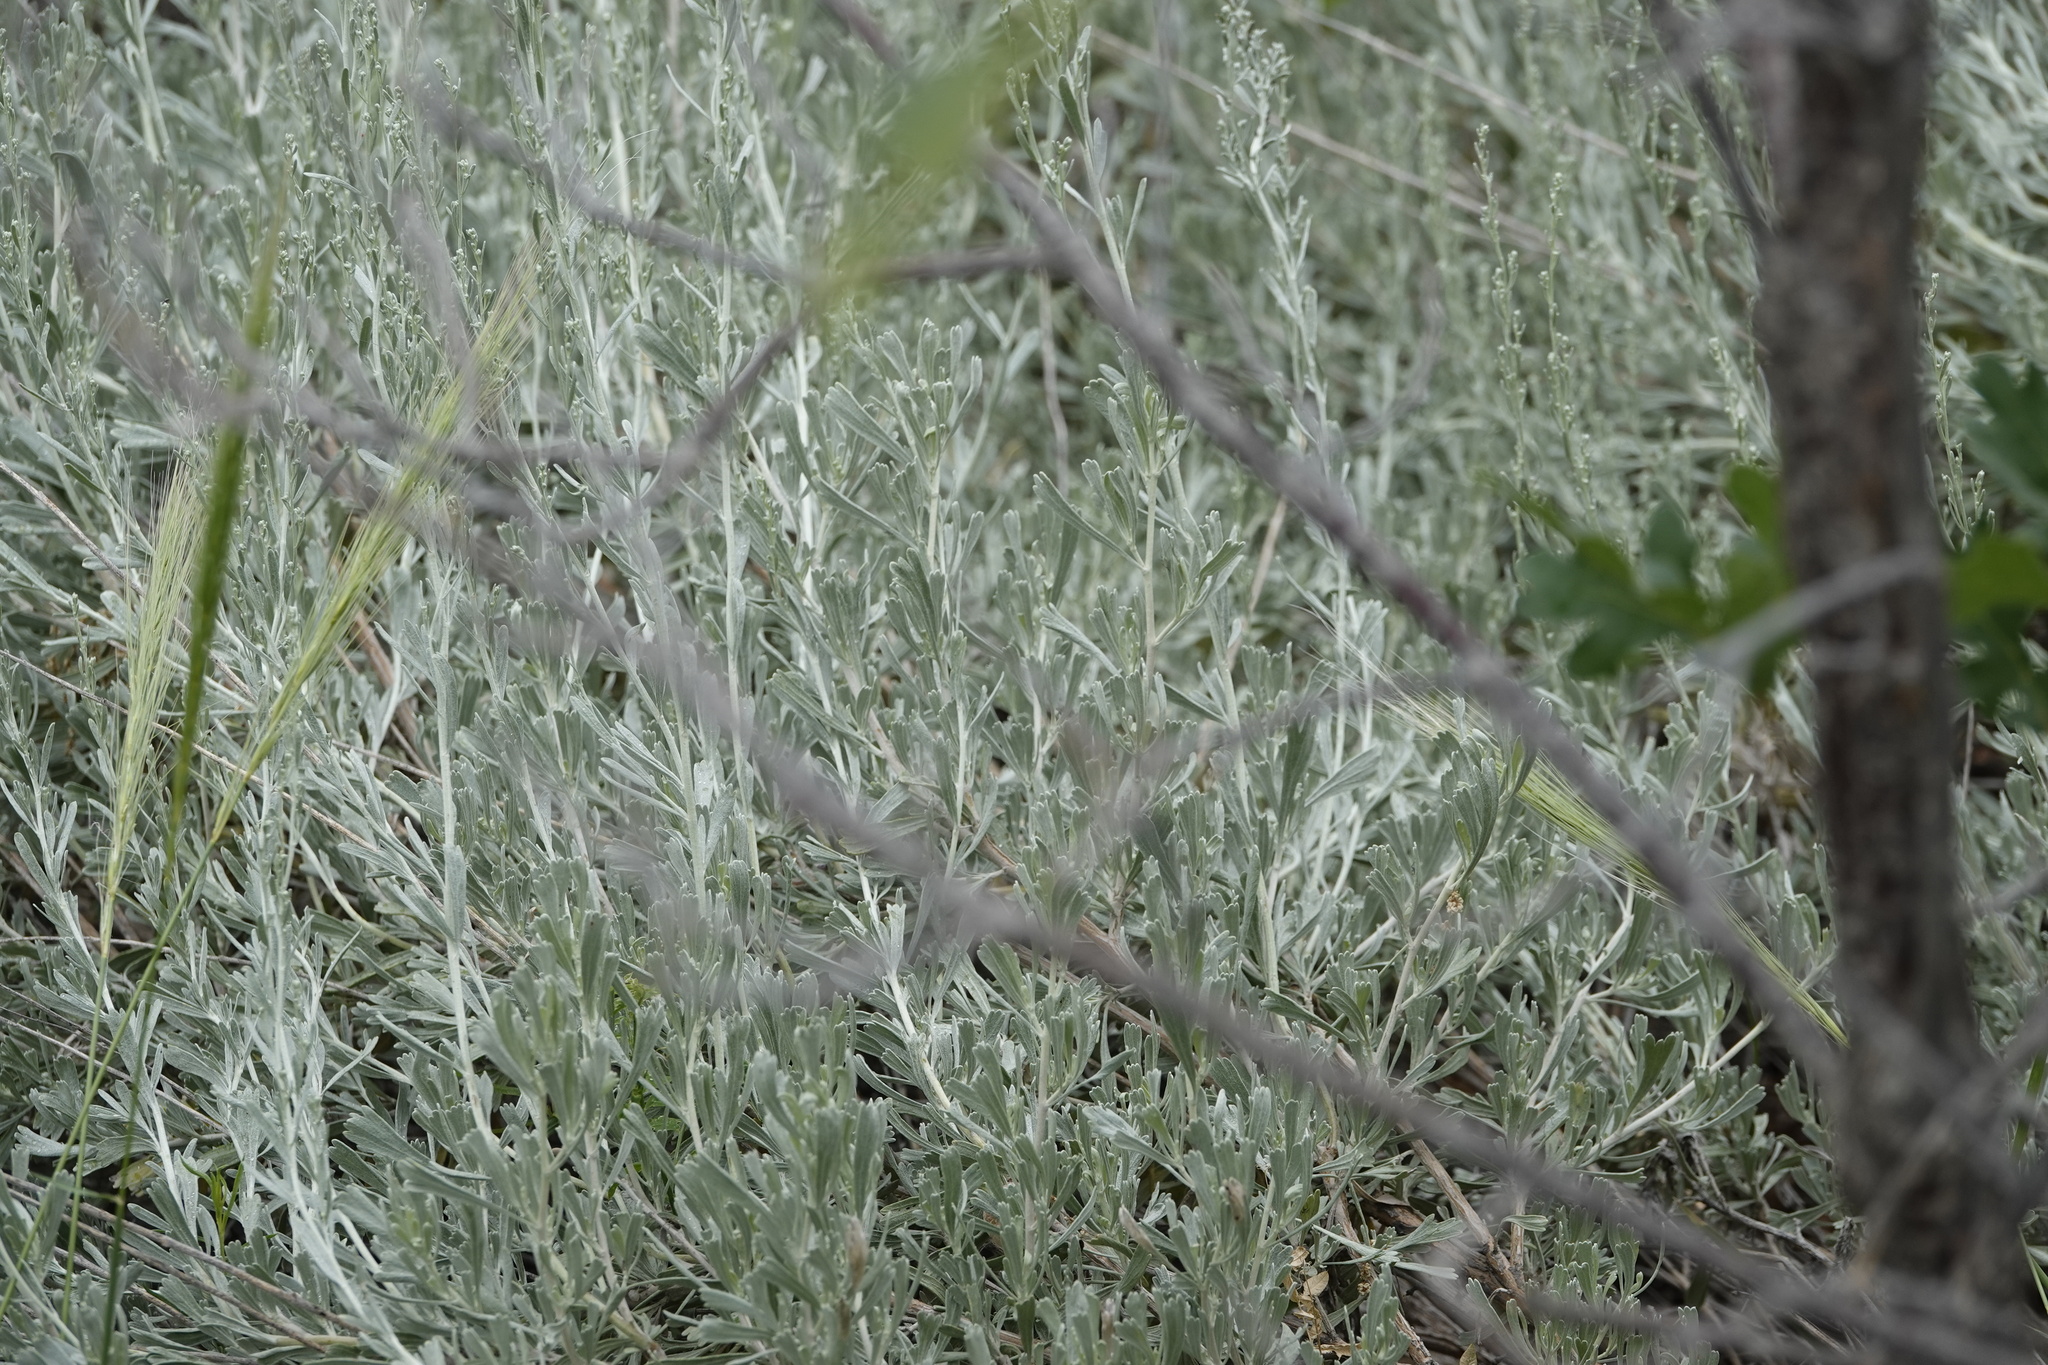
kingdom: Plantae
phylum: Tracheophyta
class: Magnoliopsida
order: Asterales
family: Asteraceae
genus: Artemisia
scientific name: Artemisia tridentata
